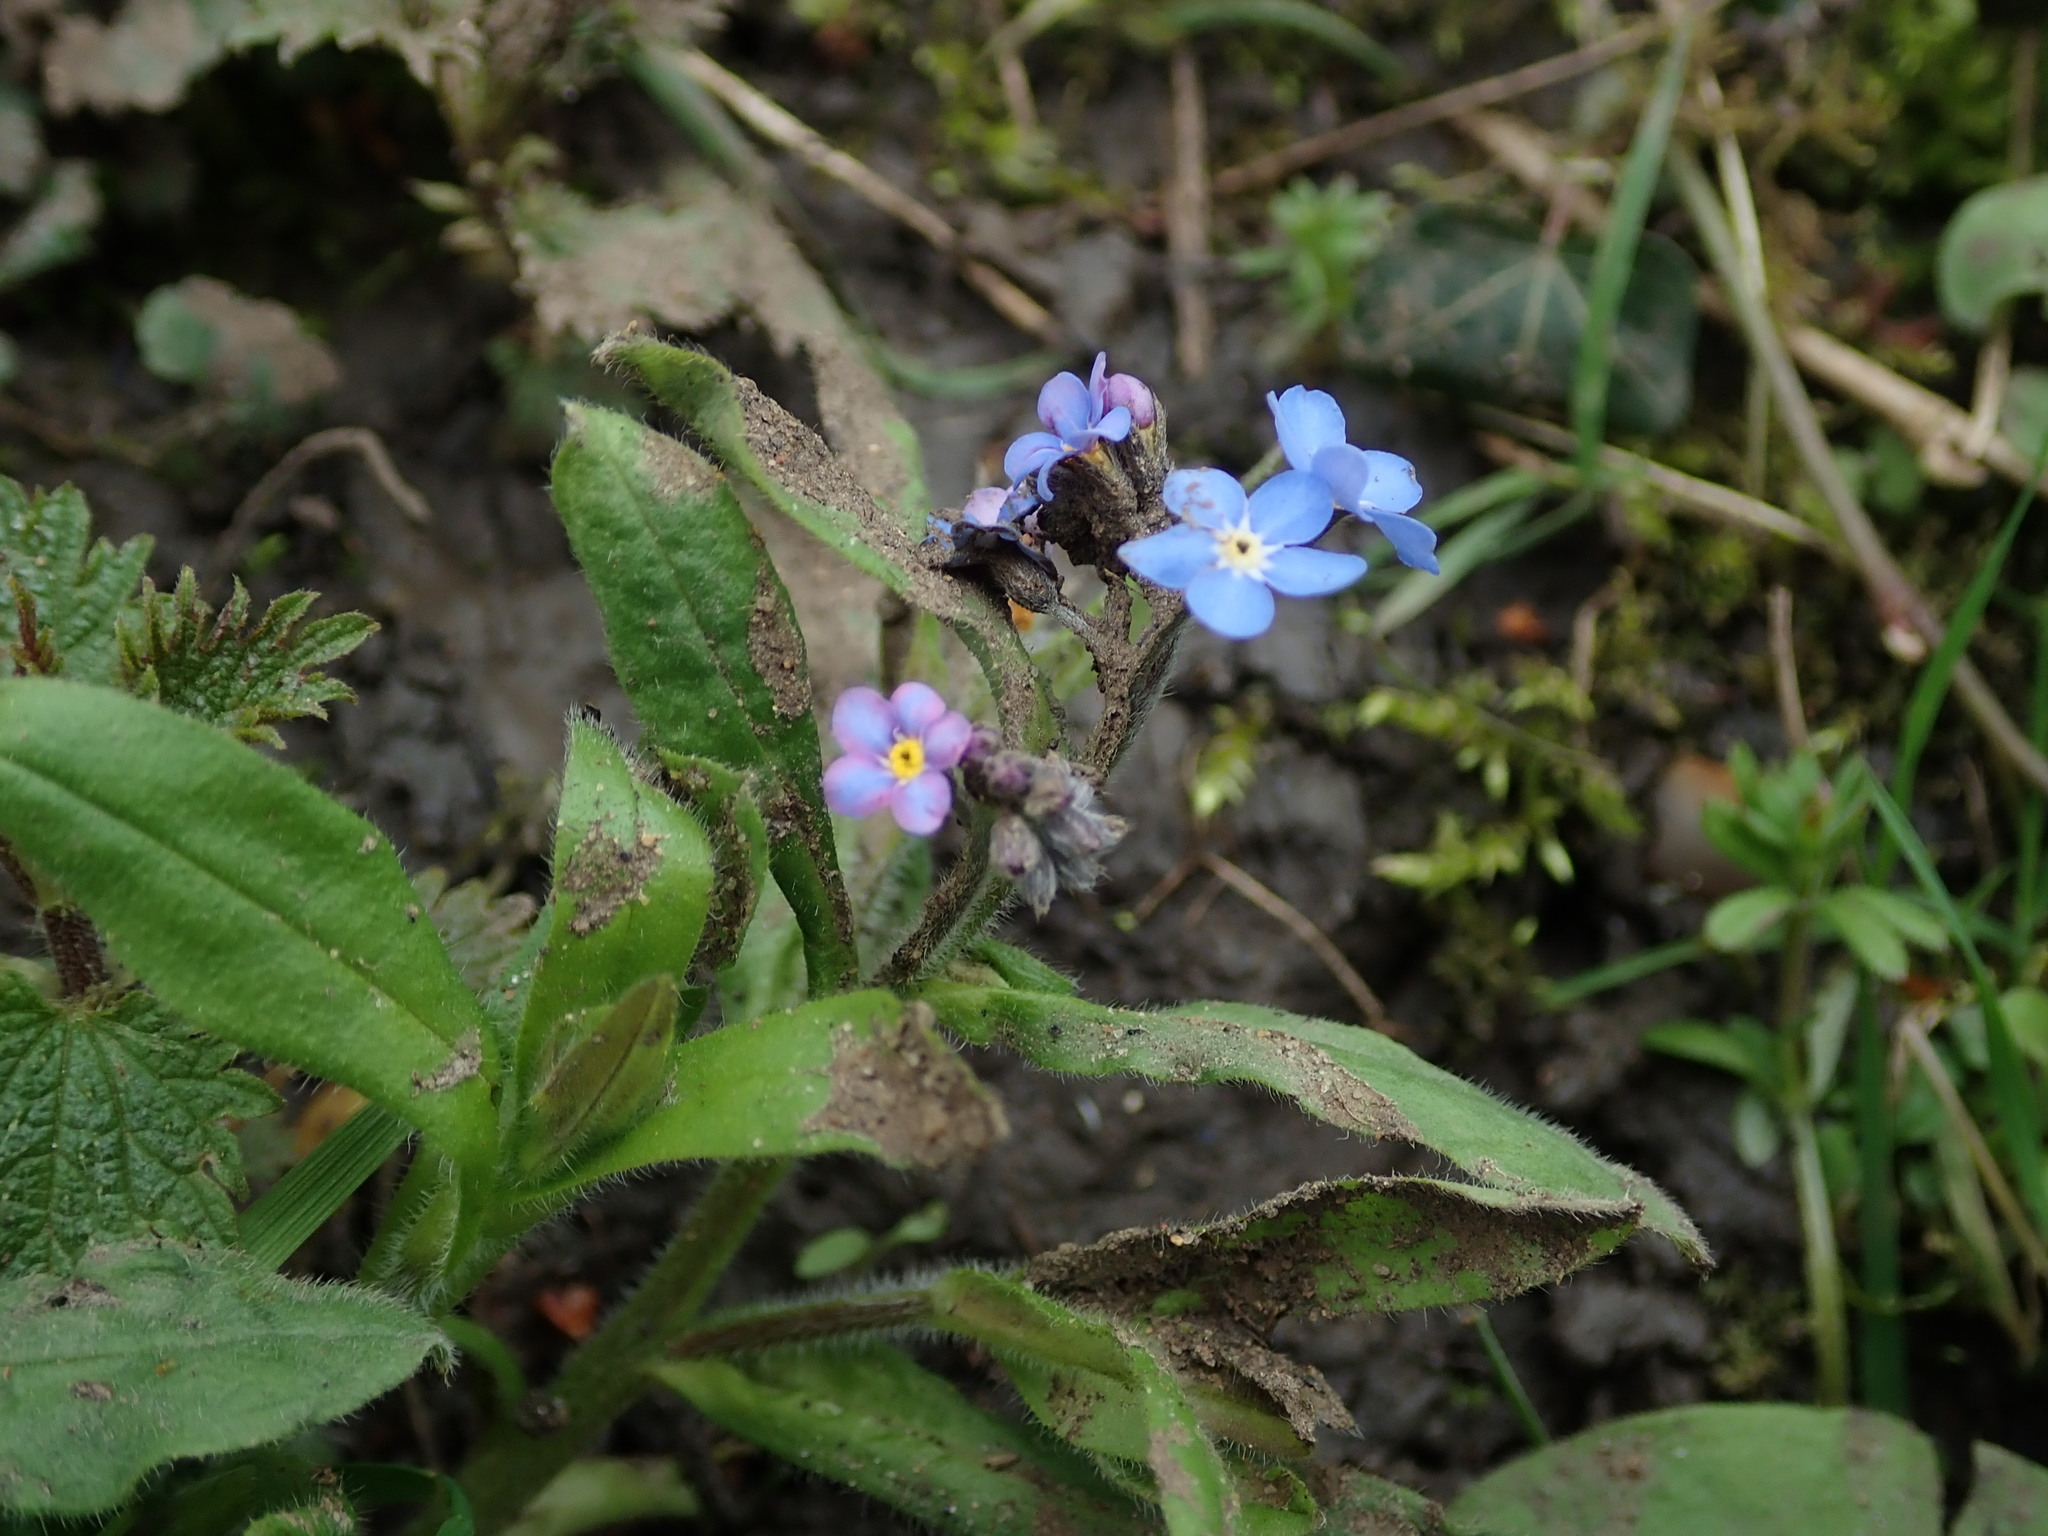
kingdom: Plantae
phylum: Tracheophyta
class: Magnoliopsida
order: Boraginales
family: Boraginaceae
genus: Myosotis
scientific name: Myosotis sylvatica
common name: Wood forget-me-not
